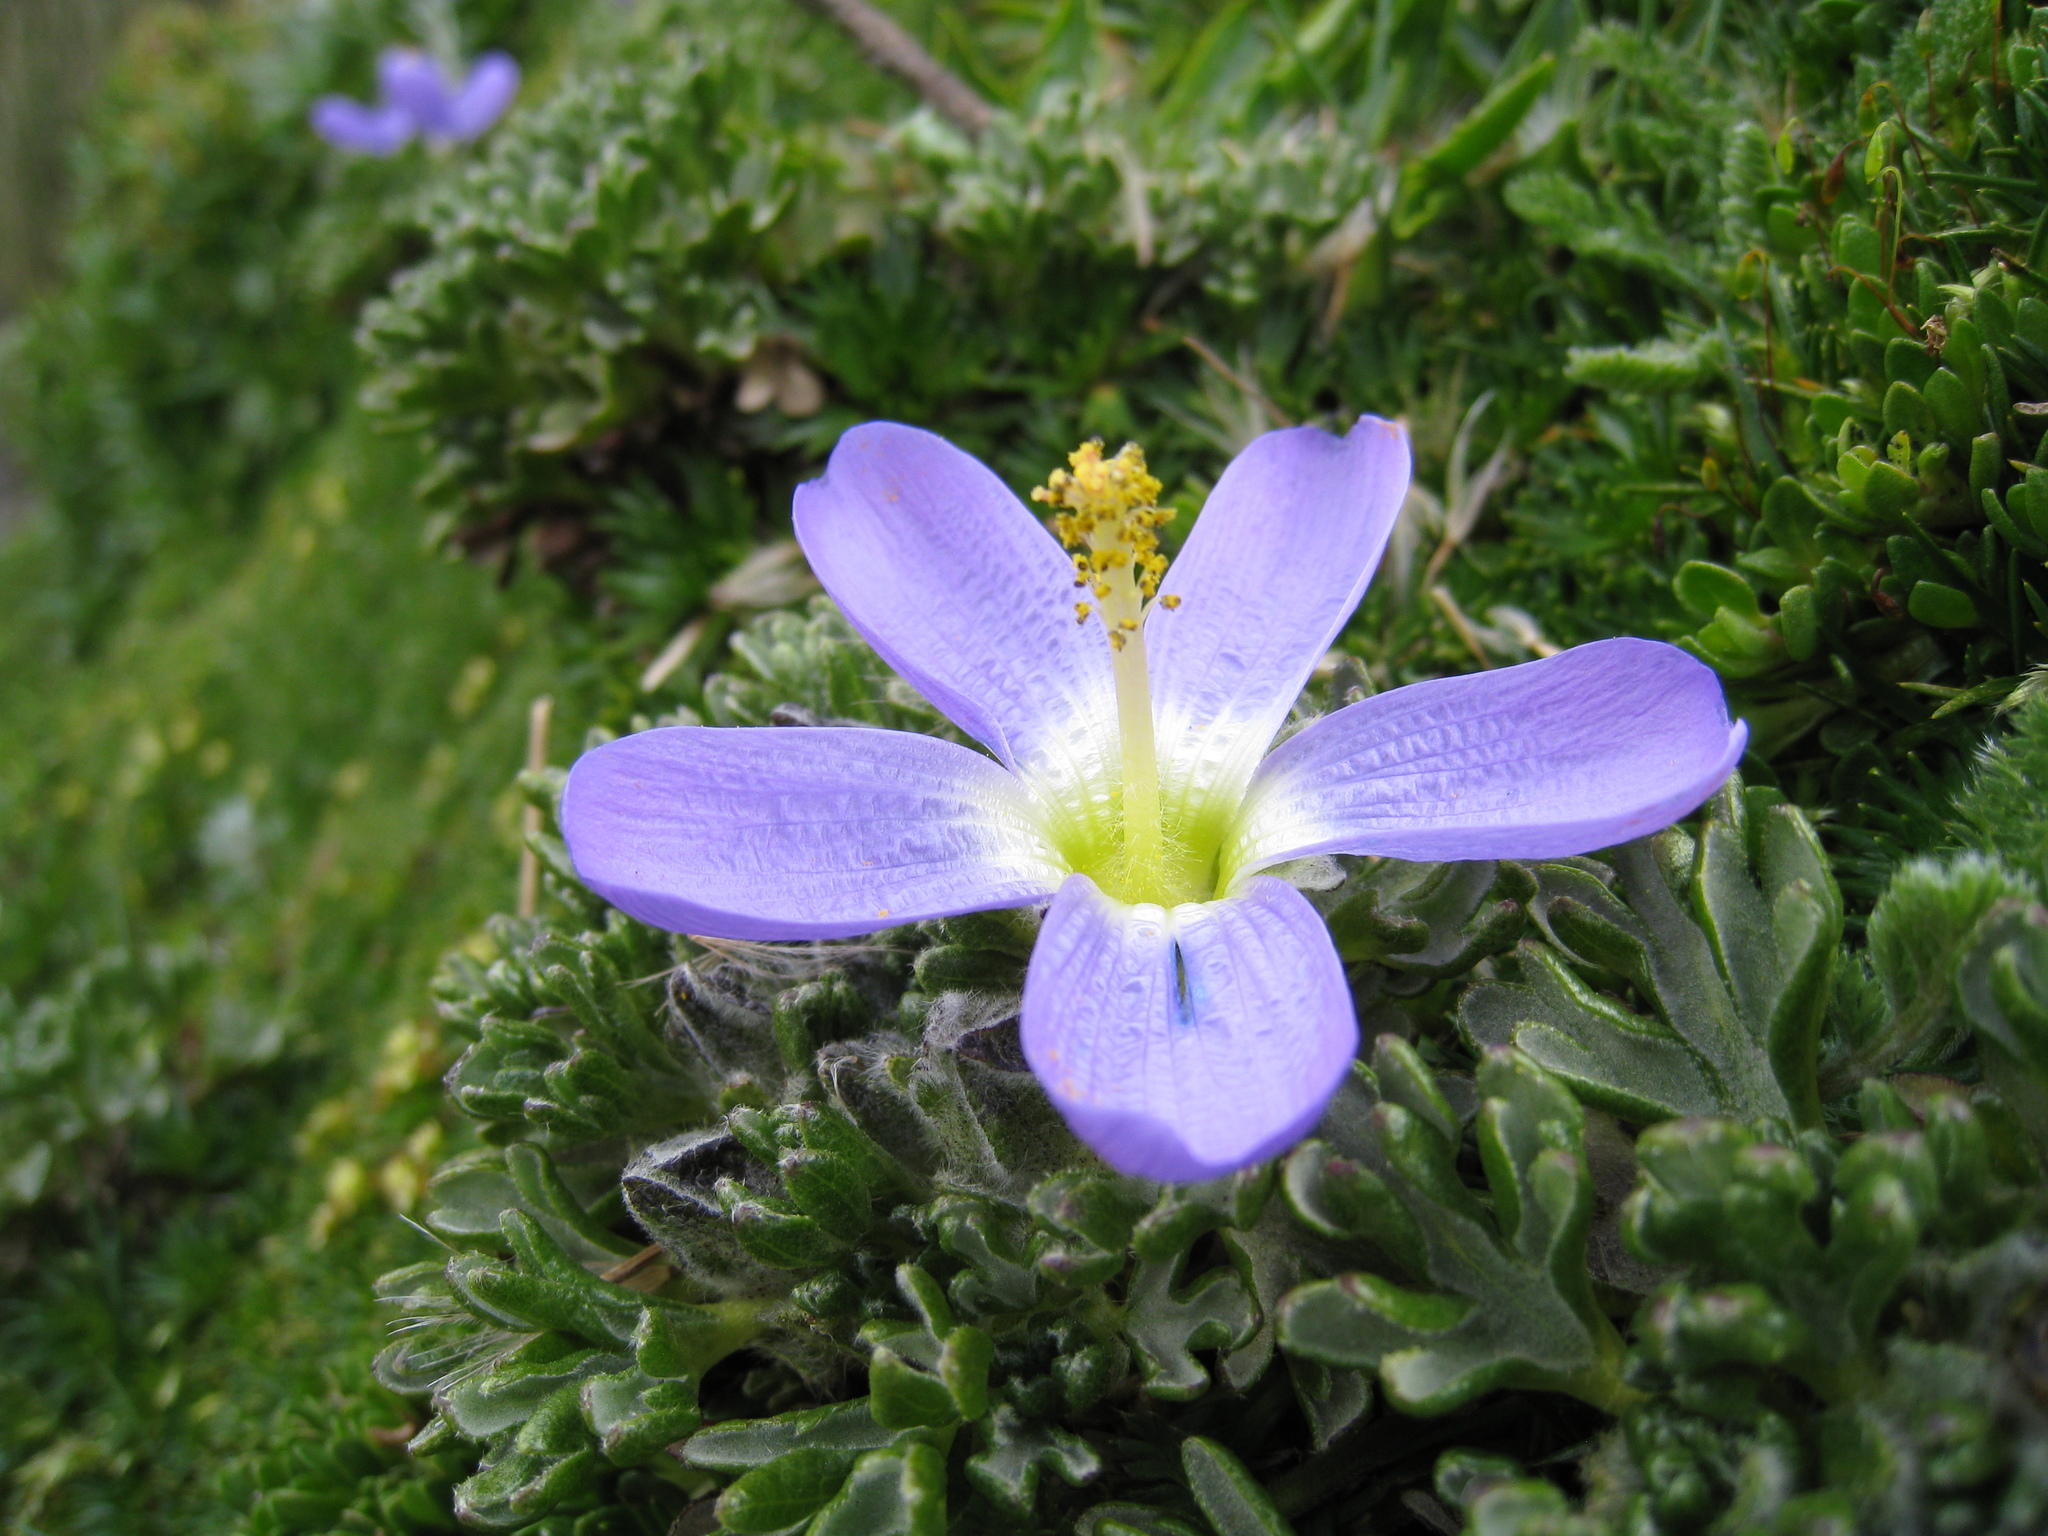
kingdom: Plantae
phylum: Tracheophyta
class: Magnoliopsida
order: Malvales
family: Malvaceae
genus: Nototriche
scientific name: Nototriche phyllanthos
